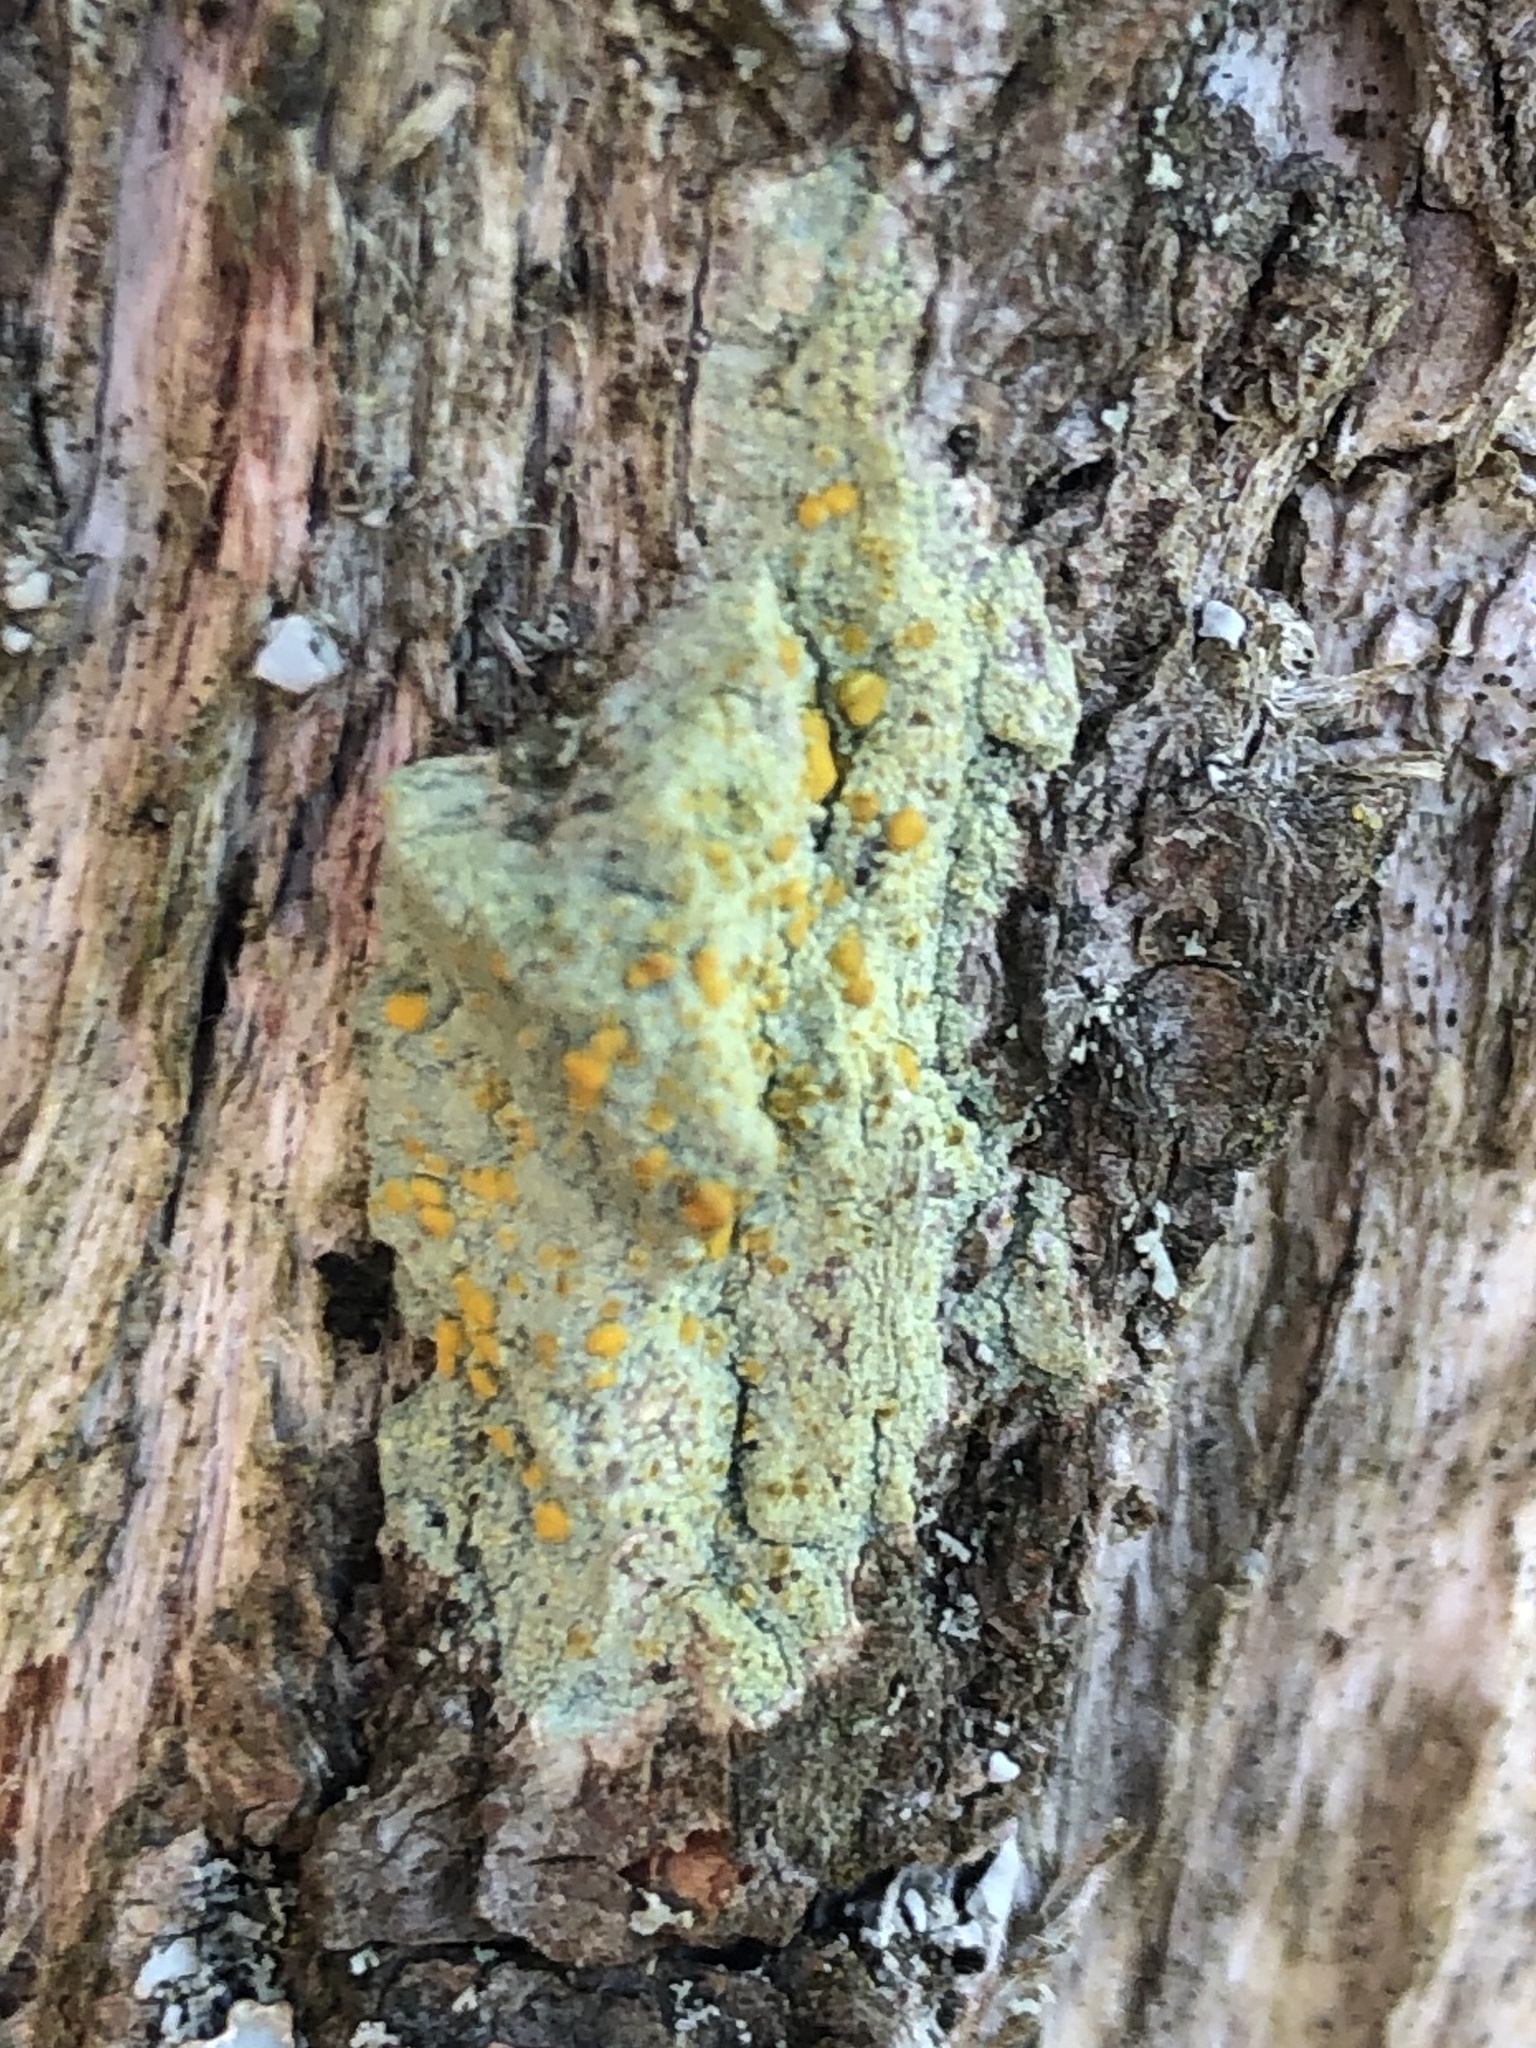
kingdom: Fungi
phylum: Ascomycota
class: Lecanoromycetes
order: Lecanorales
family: Lecanoraceae
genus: Lecanora
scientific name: Lecanora symmicta
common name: Fused rim lichen
